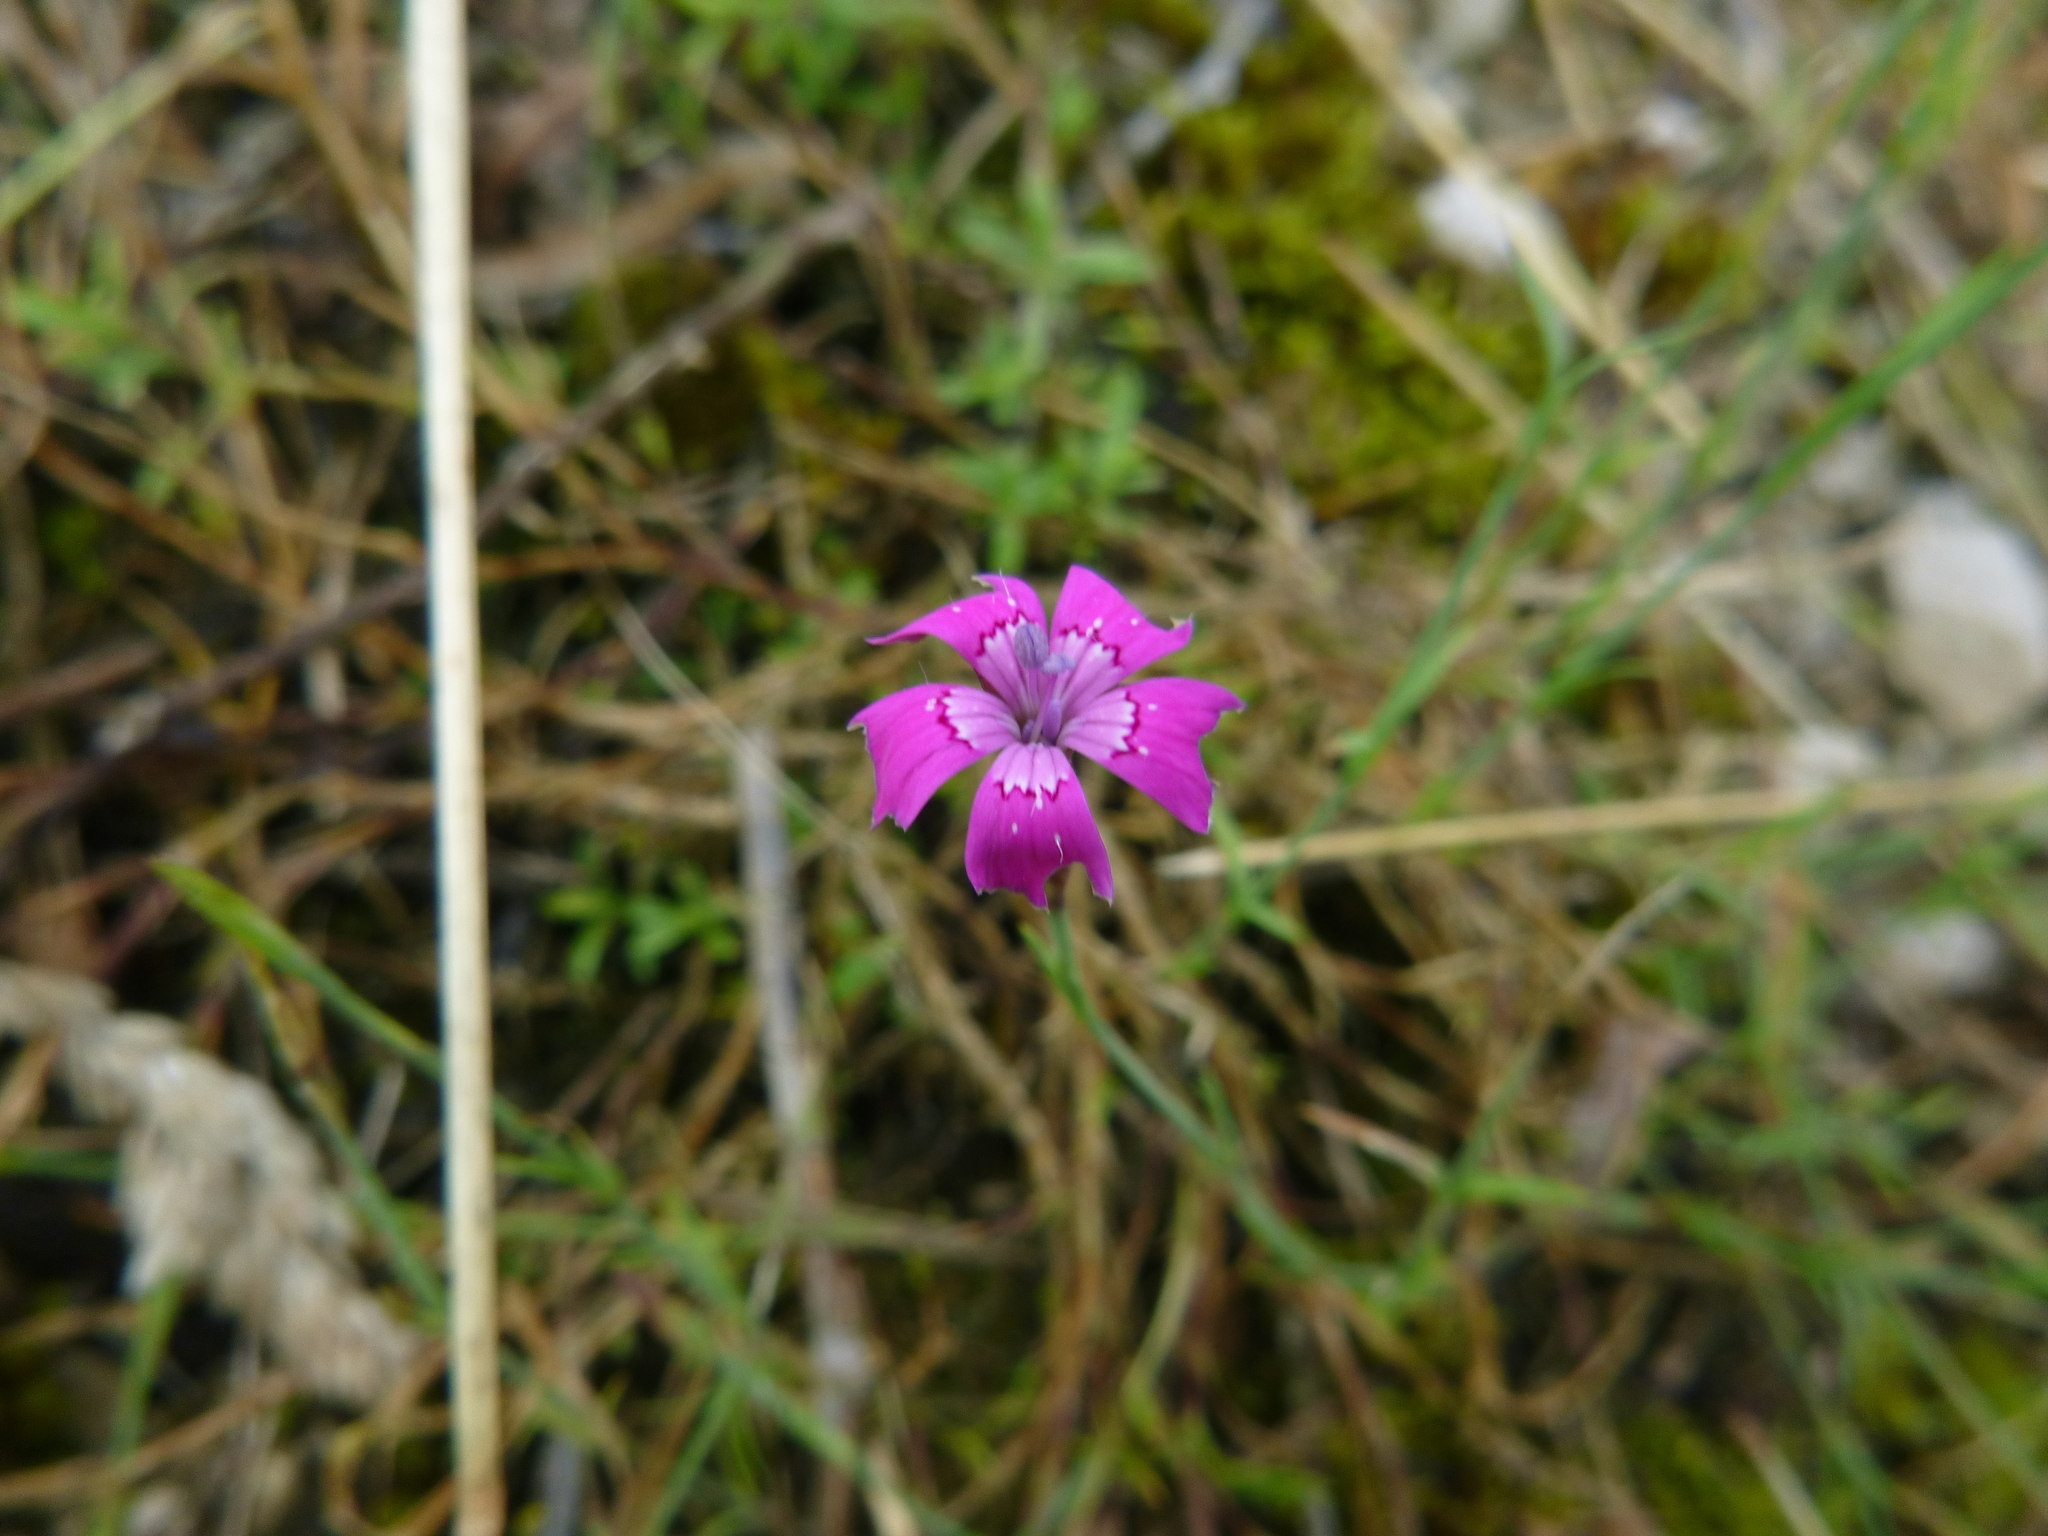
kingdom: Plantae
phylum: Tracheophyta
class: Magnoliopsida
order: Caryophyllales
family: Caryophyllaceae
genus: Dianthus
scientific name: Dianthus deltoides
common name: Maiden pink
